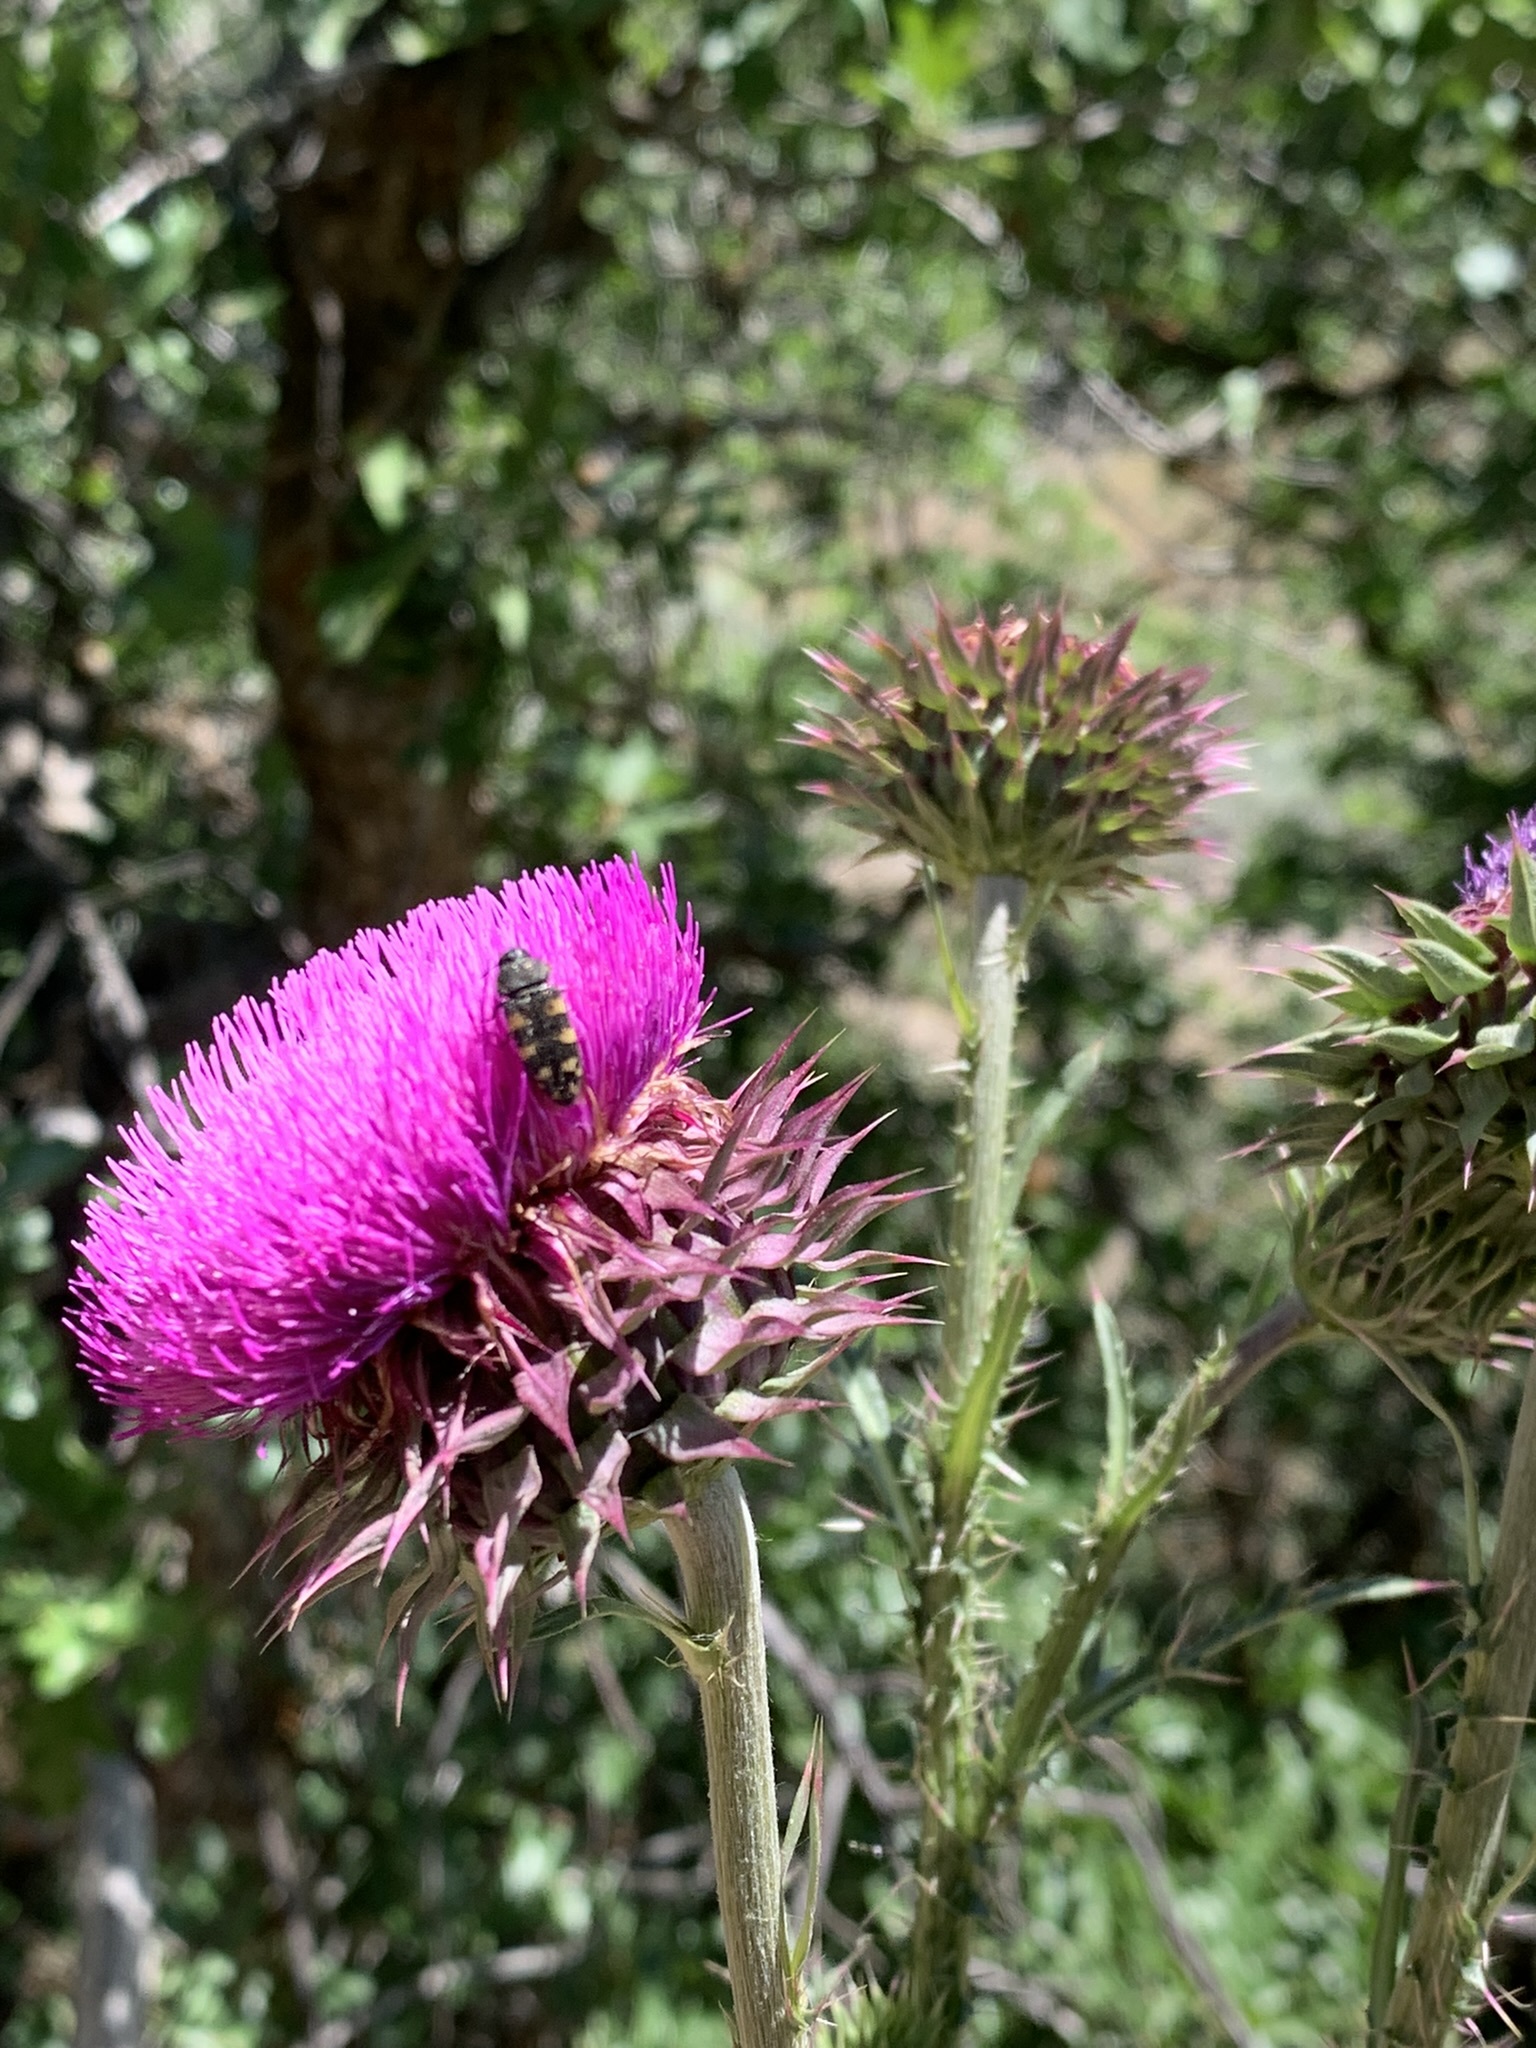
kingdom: Plantae
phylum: Tracheophyta
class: Magnoliopsida
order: Asterales
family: Asteraceae
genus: Carduus
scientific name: Carduus nutans
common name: Musk thistle
